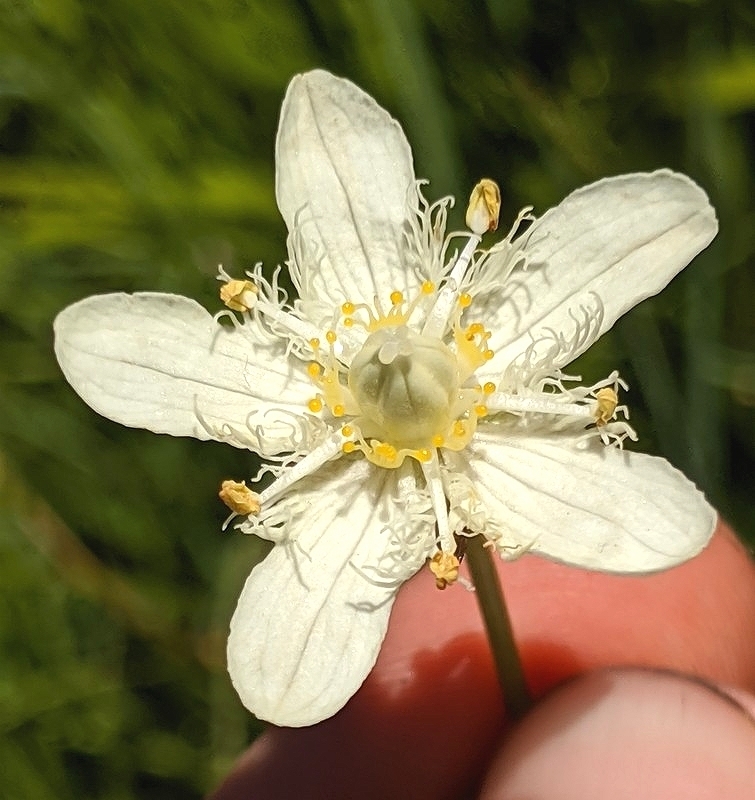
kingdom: Plantae
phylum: Tracheophyta
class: Magnoliopsida
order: Celastrales
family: Parnassiaceae
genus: Parnassia
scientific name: Parnassia cirrata
